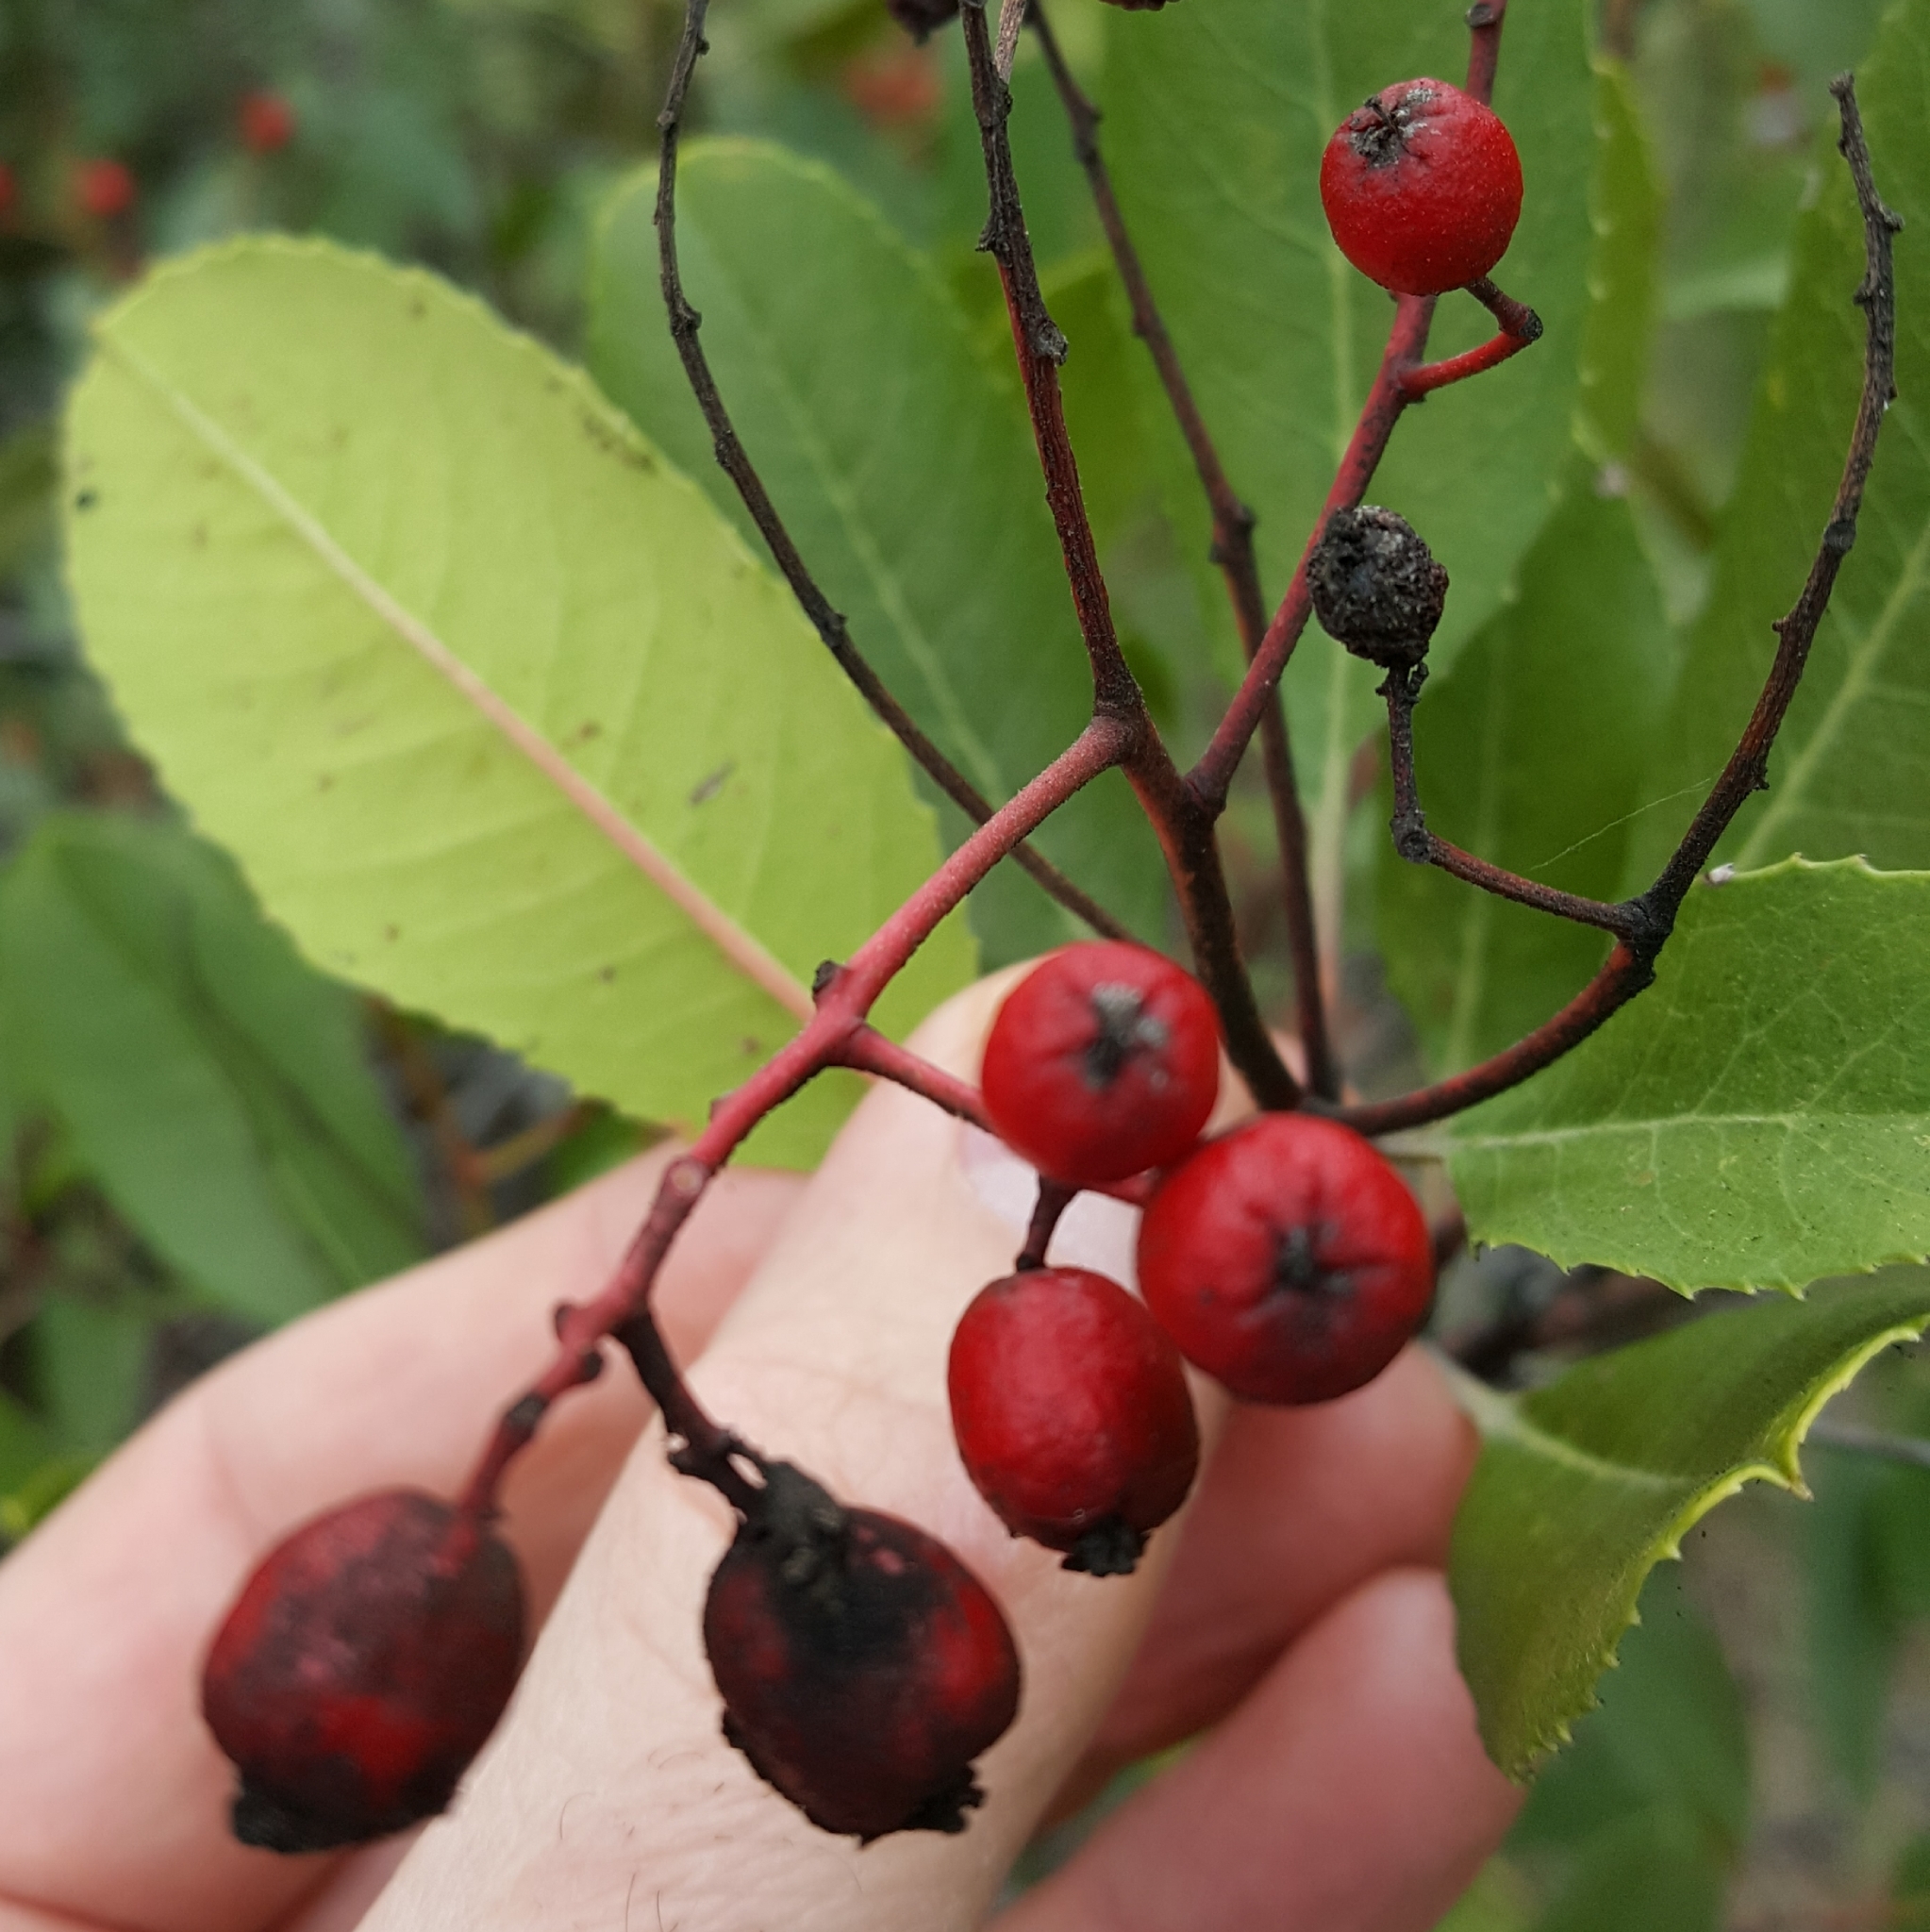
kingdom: Plantae
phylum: Tracheophyta
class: Magnoliopsida
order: Rosales
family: Rosaceae
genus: Heteromeles
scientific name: Heteromeles arbutifolia
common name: California-holly
